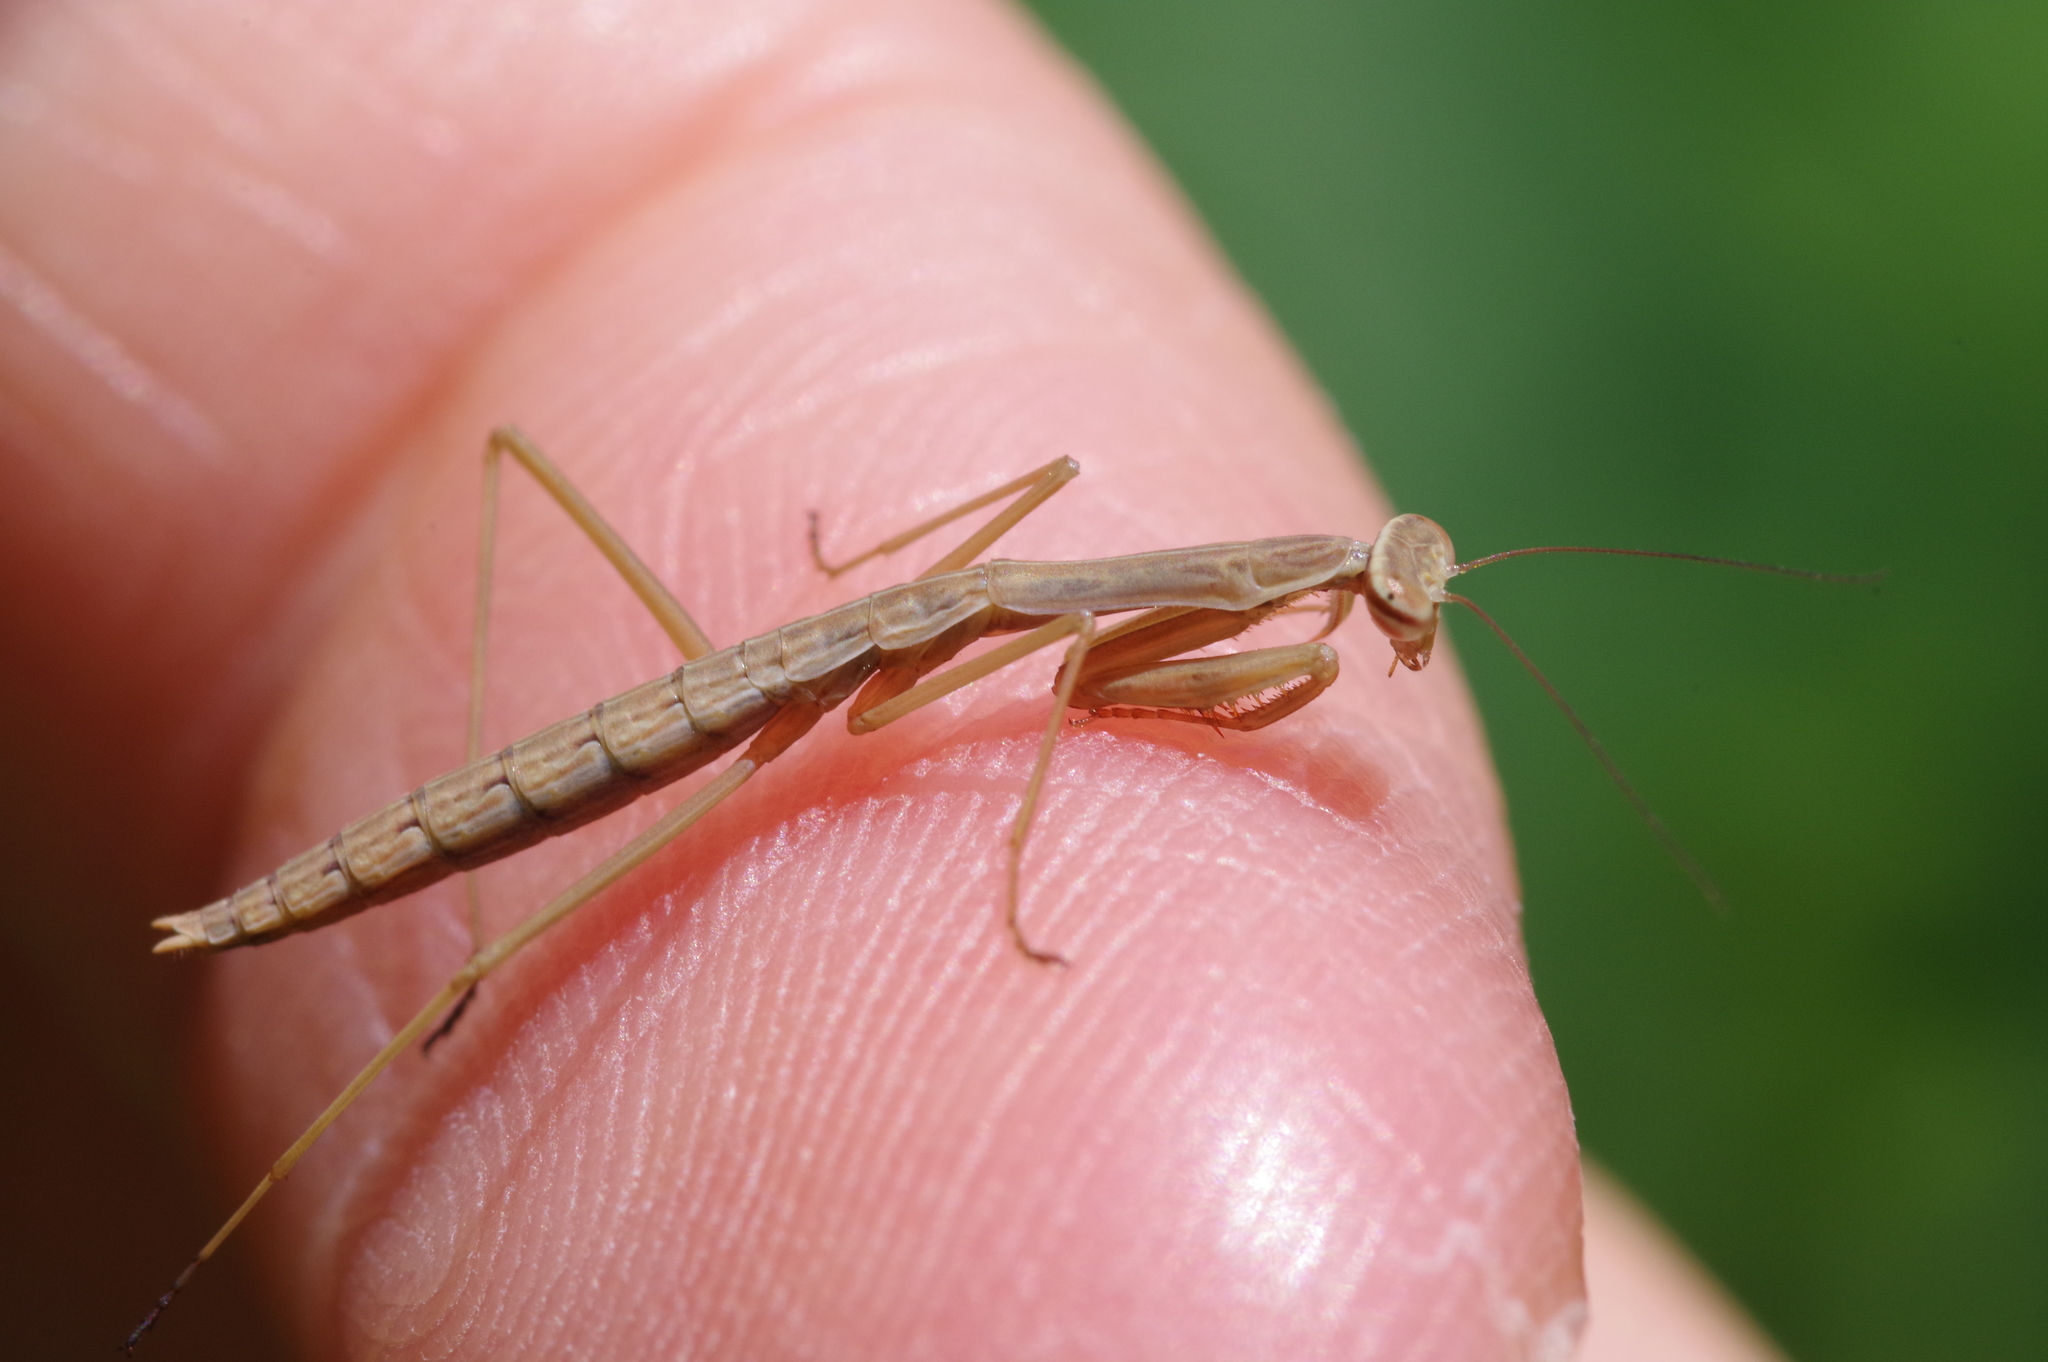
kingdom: Animalia
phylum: Arthropoda
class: Insecta
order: Mantodea
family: Mantidae
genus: Tenodera
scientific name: Tenodera angustipennis
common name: Asian mantis
